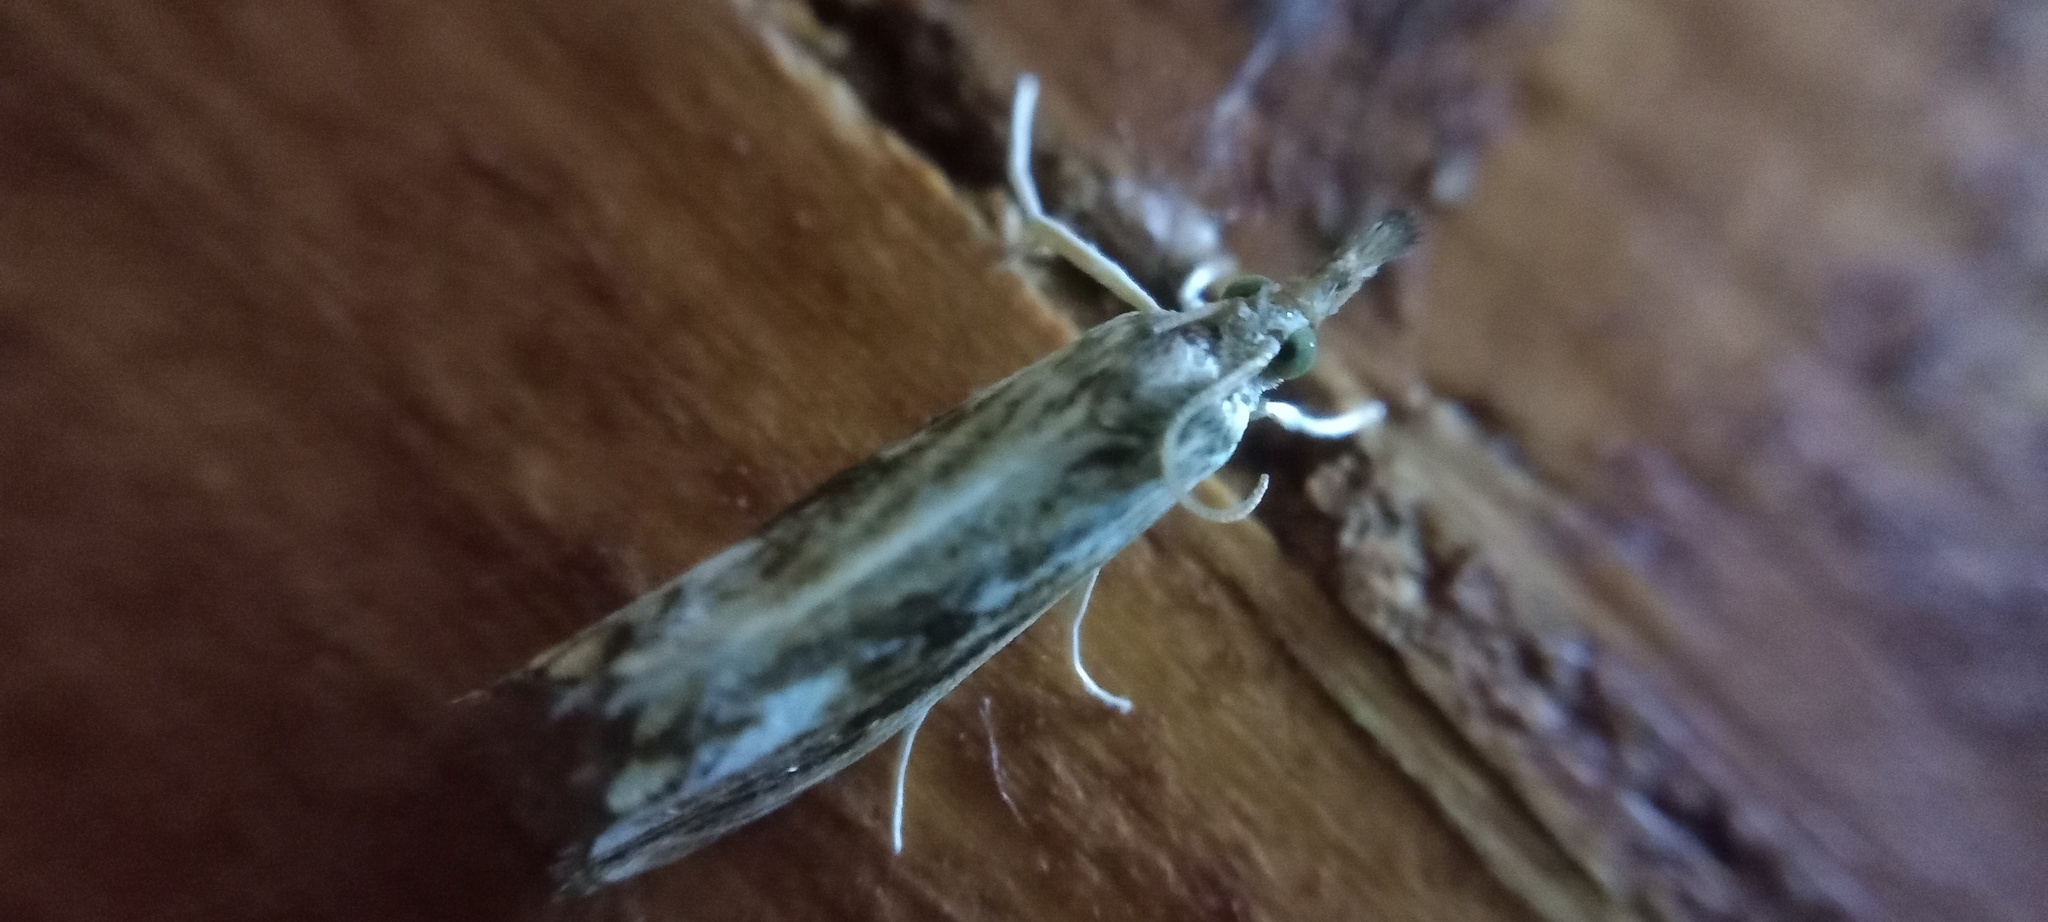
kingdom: Animalia
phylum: Arthropoda
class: Insecta
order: Lepidoptera
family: Crambidae
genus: Catoptria
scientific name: Catoptria verellus
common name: Marbled grass-veneer
